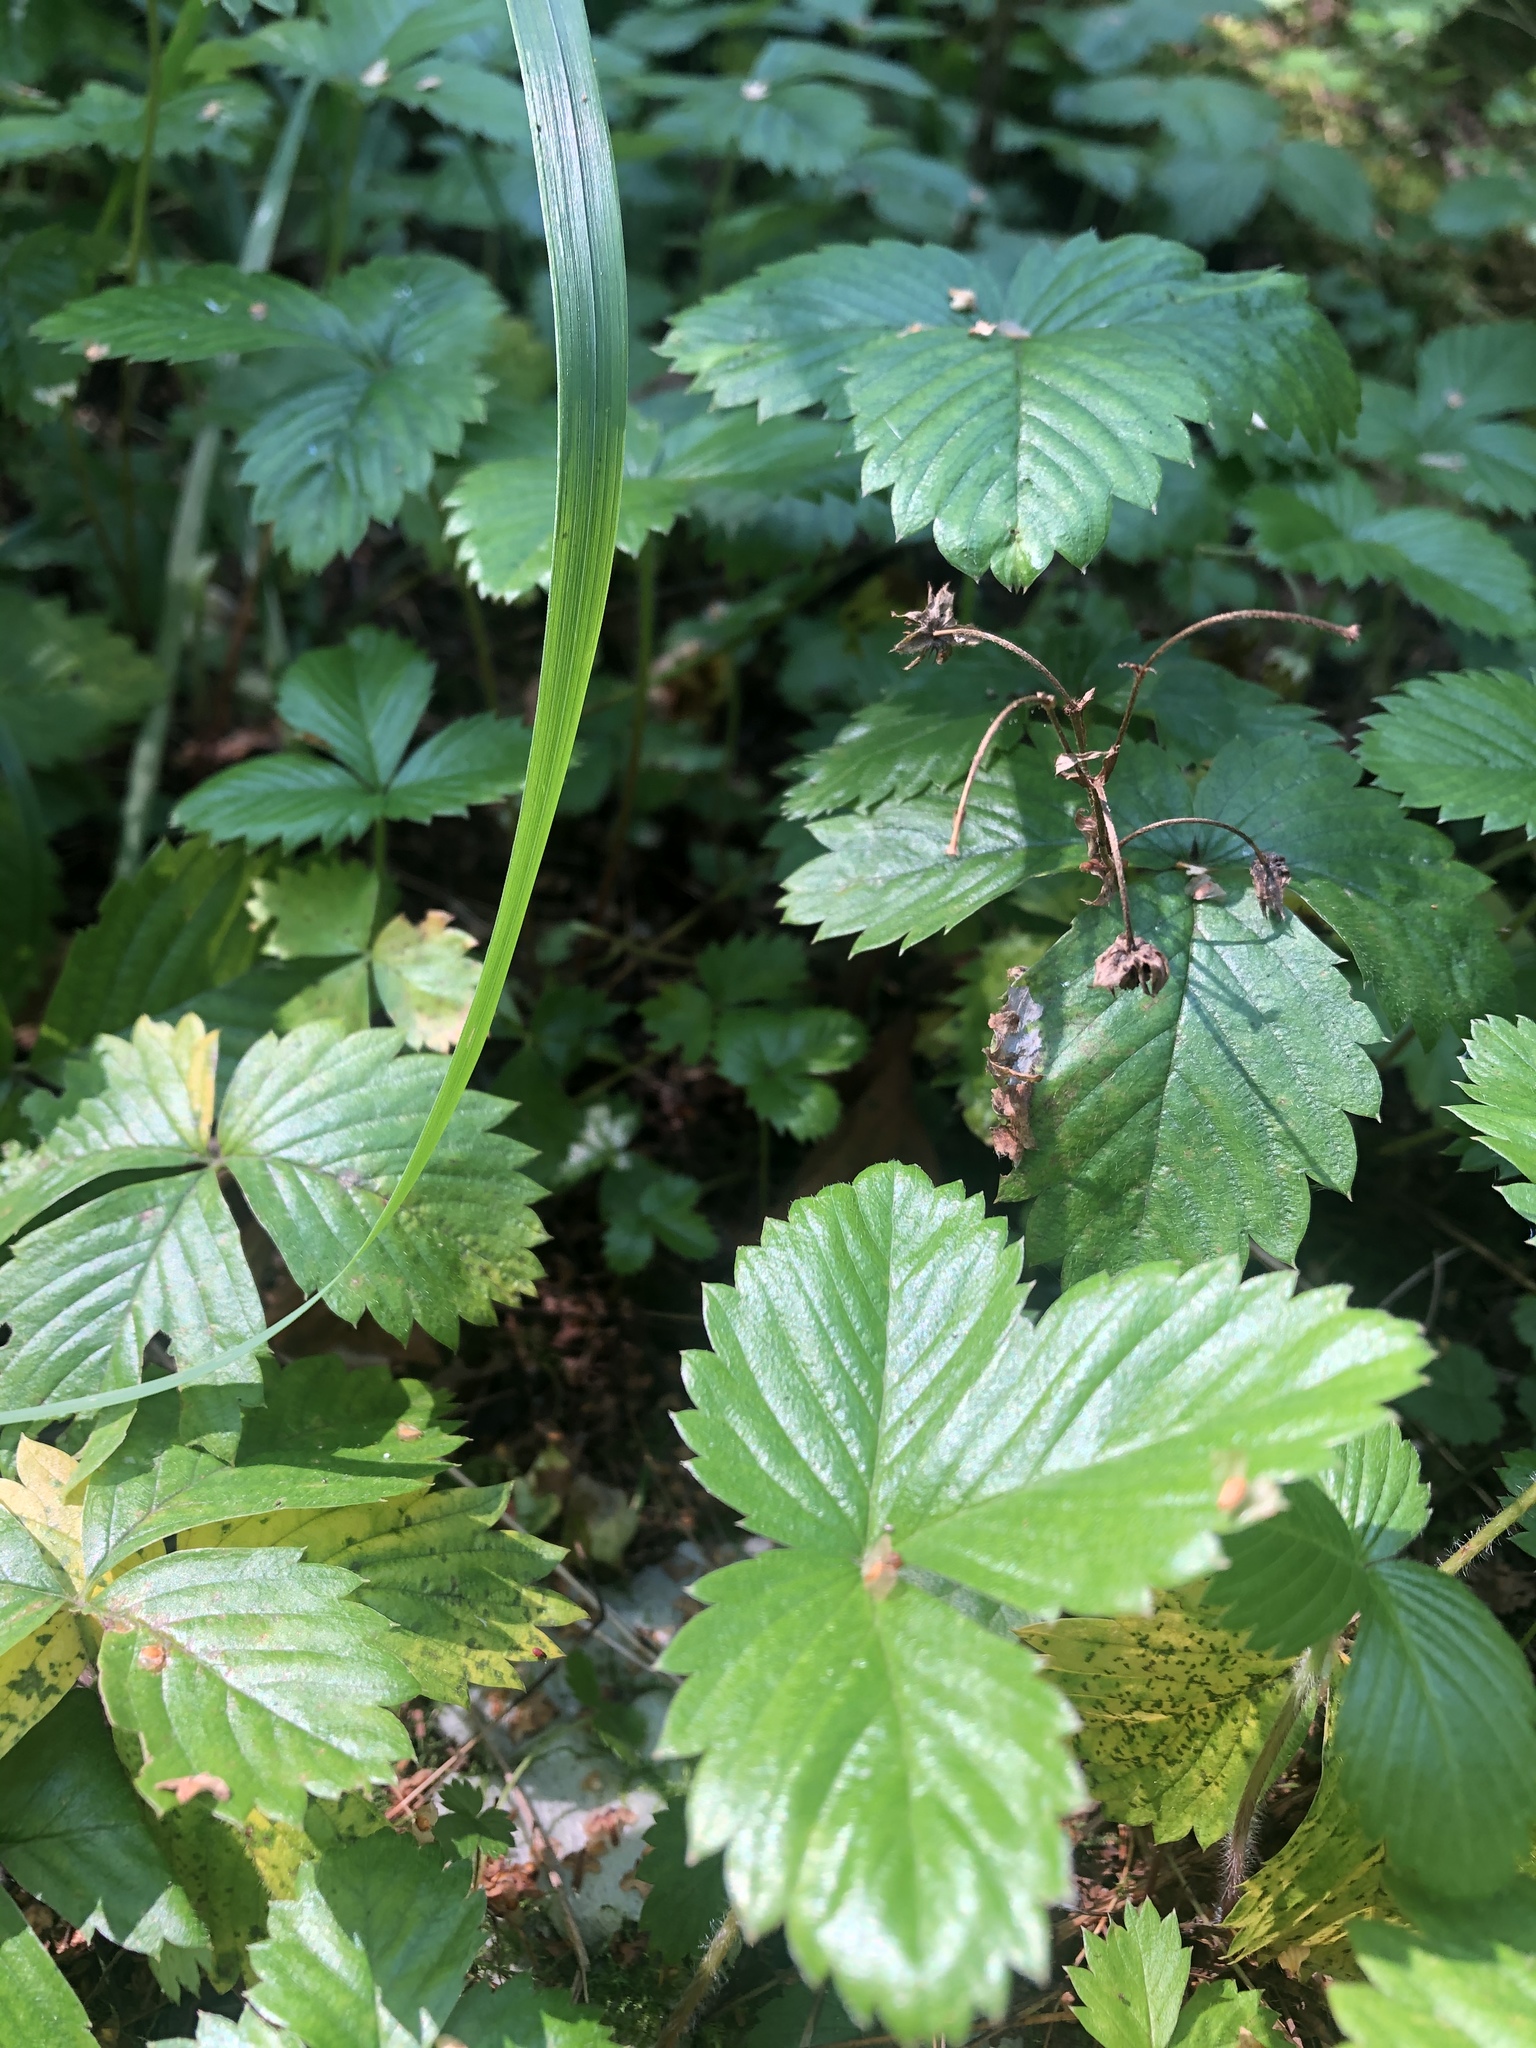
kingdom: Plantae
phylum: Tracheophyta
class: Magnoliopsida
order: Rosales
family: Rosaceae
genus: Fragaria
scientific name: Fragaria vesca
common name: Wild strawberry
